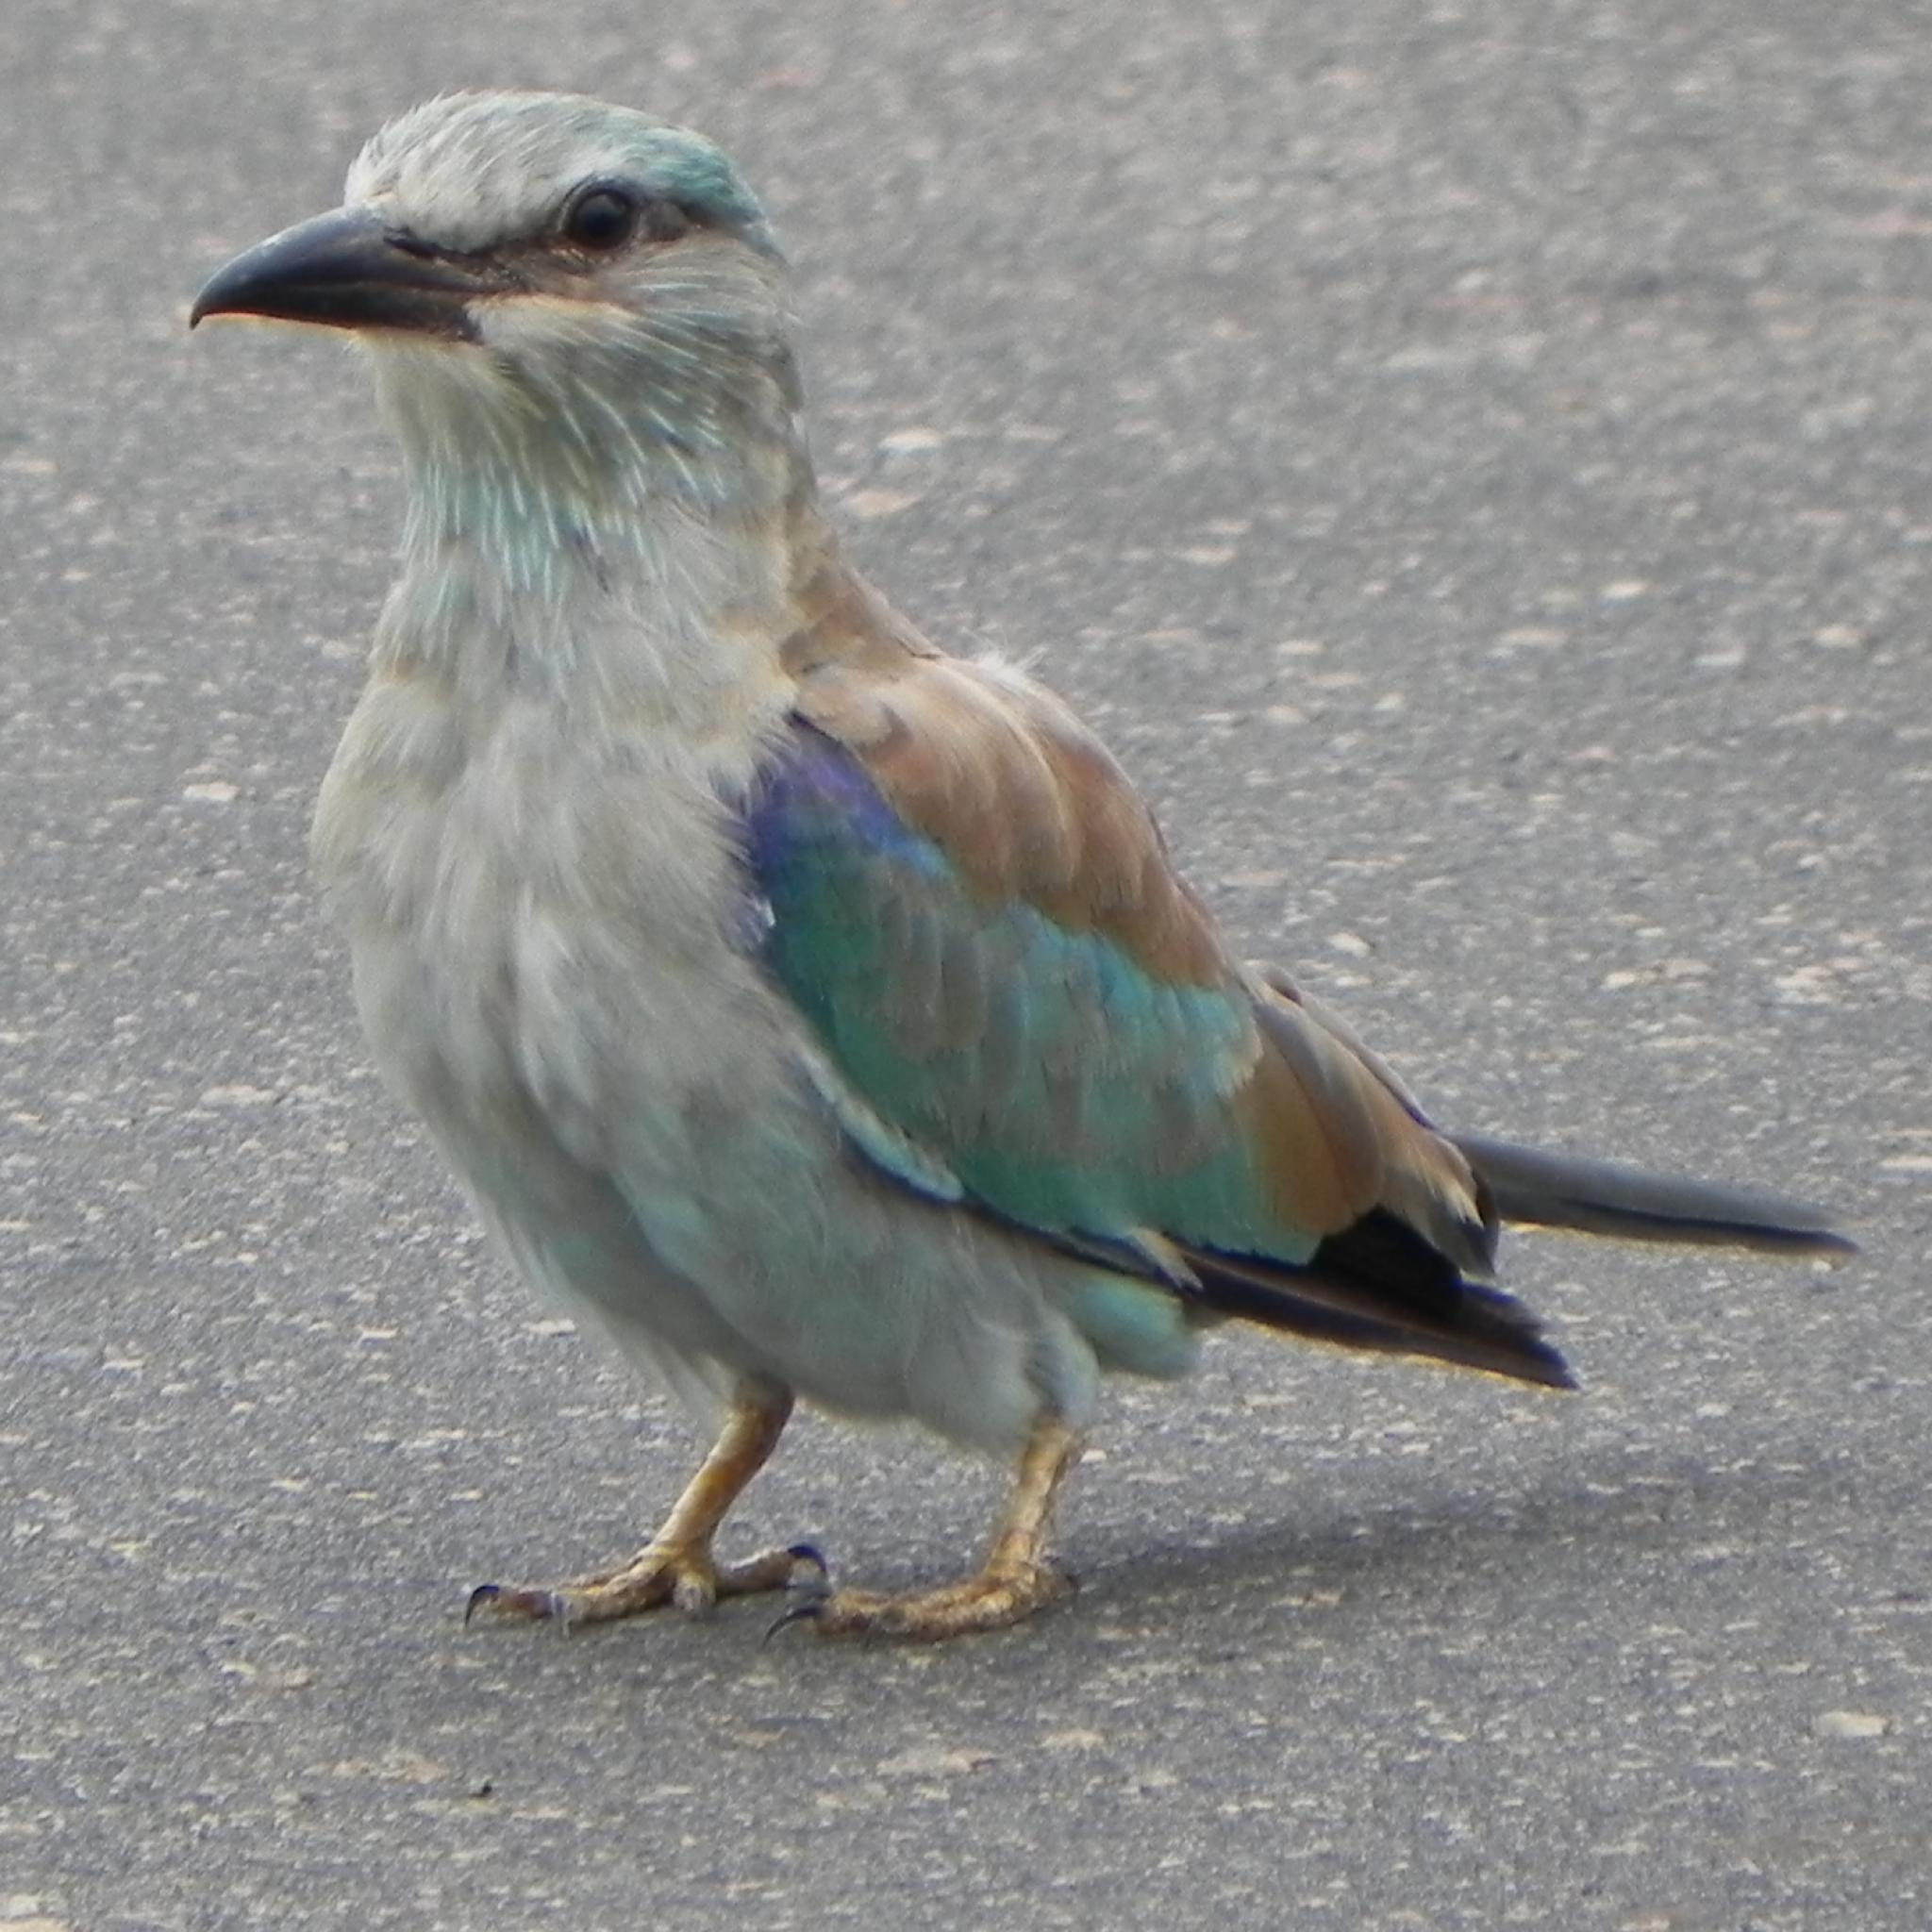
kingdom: Animalia
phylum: Chordata
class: Aves
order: Coraciiformes
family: Coraciidae
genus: Coracias
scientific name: Coracias garrulus
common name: European roller
